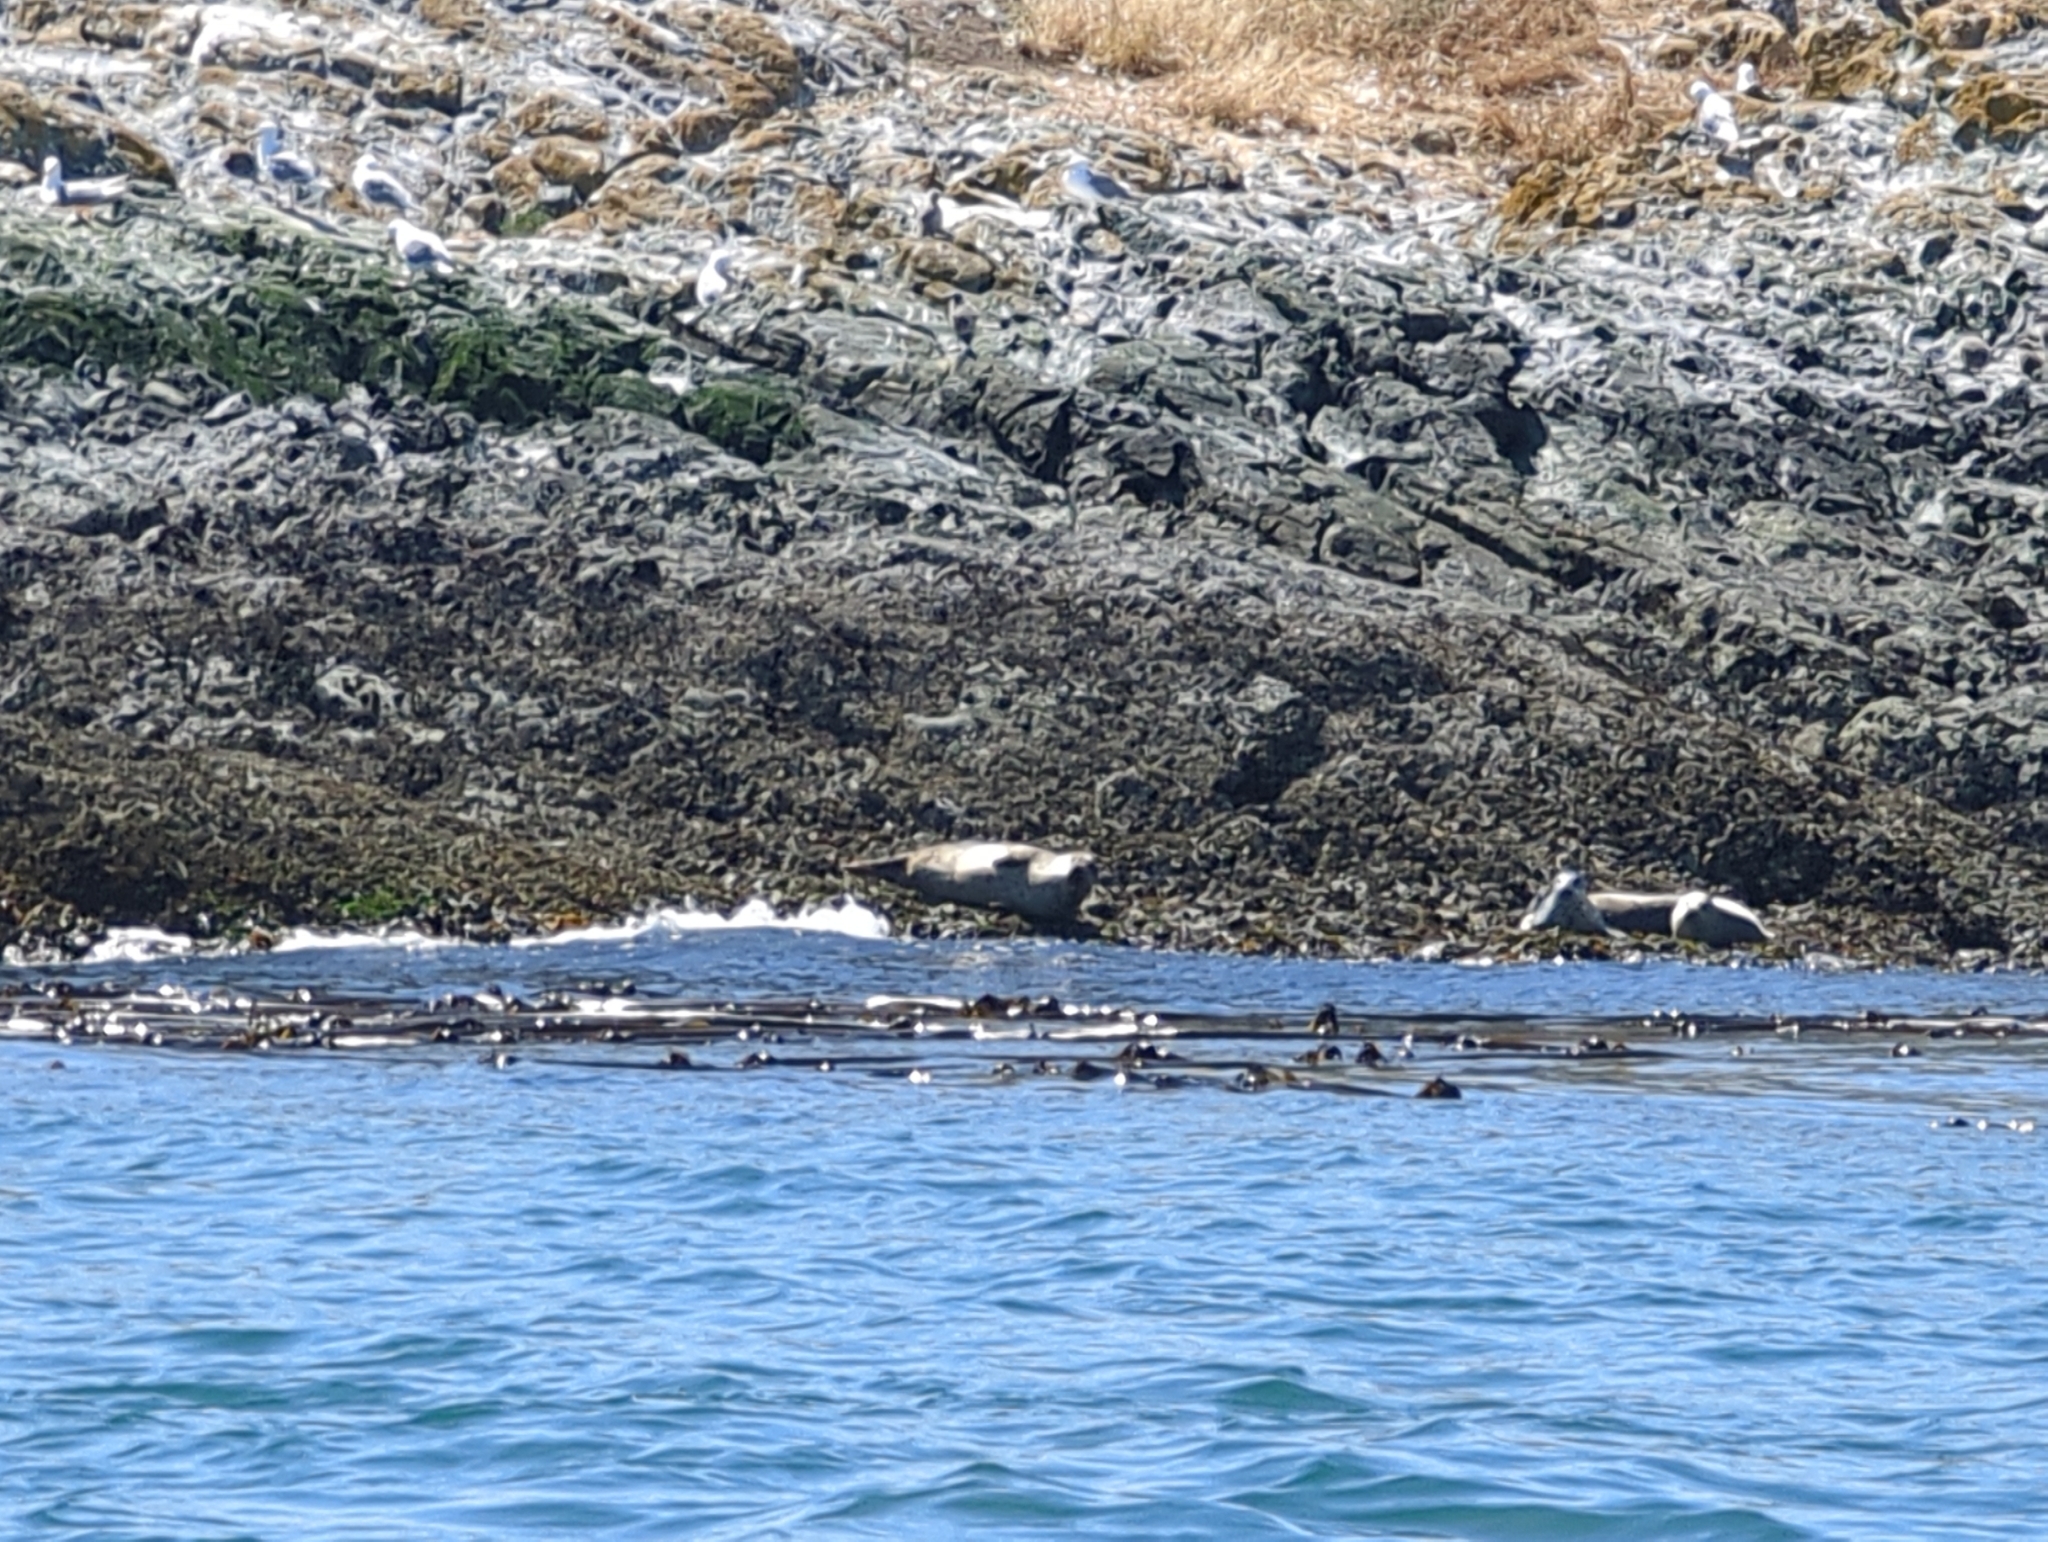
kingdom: Animalia
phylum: Chordata
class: Mammalia
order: Carnivora
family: Phocidae
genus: Phoca
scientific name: Phoca vitulina
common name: Harbor seal
